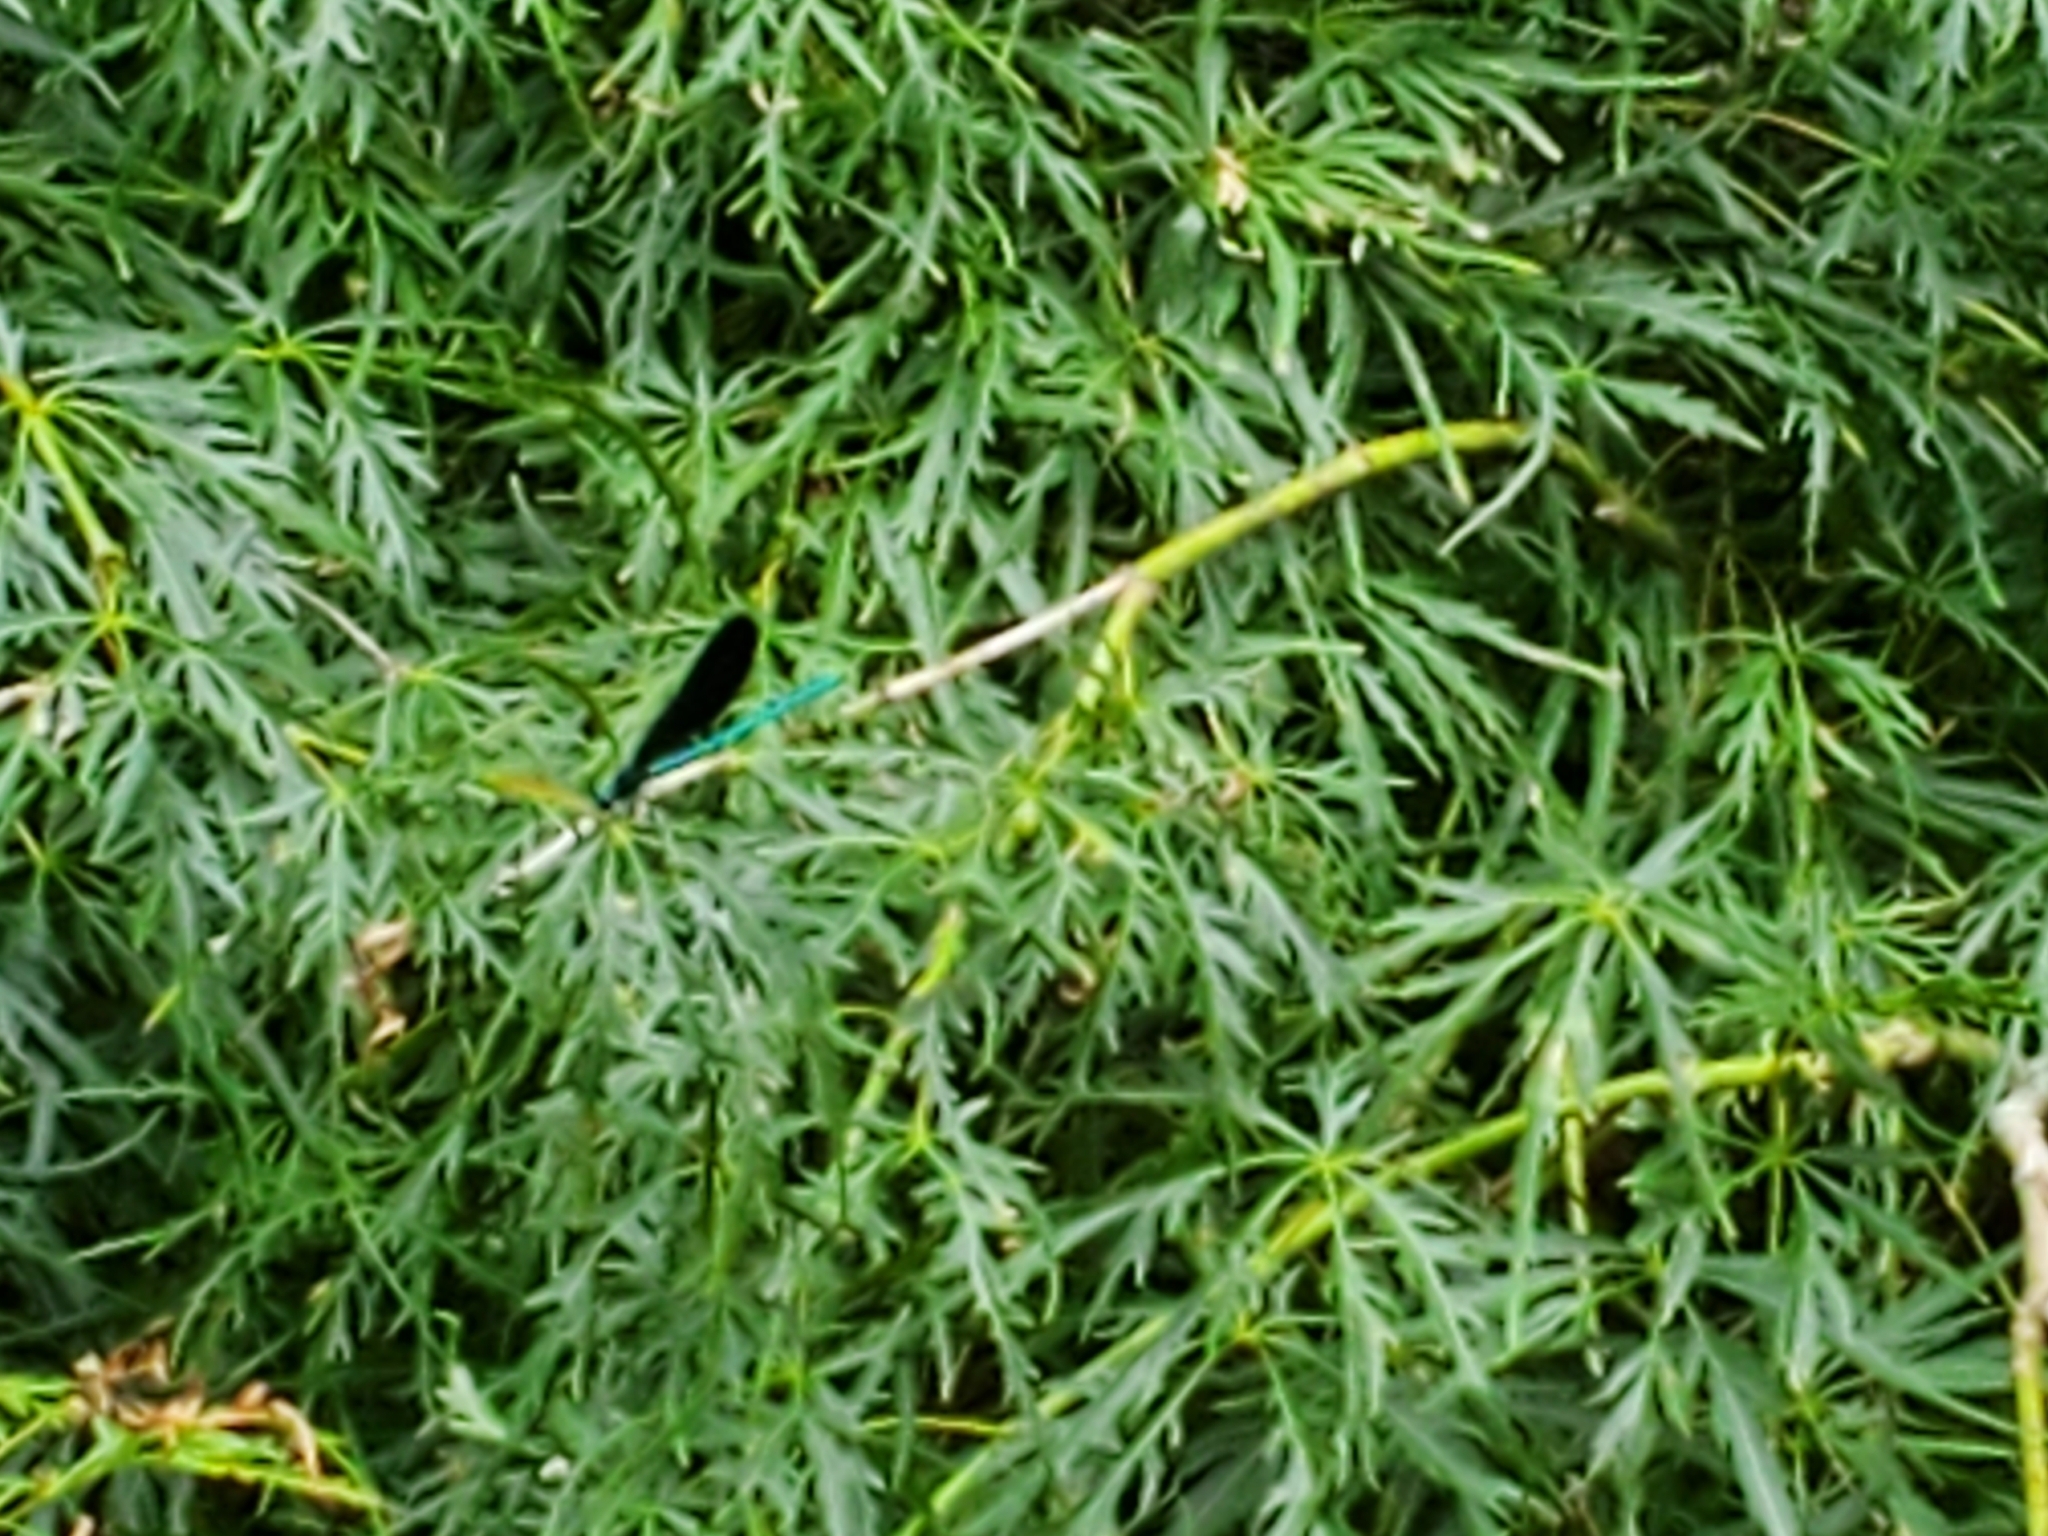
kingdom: Animalia
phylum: Arthropoda
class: Insecta
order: Odonata
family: Calopterygidae
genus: Calopteryx
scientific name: Calopteryx maculata
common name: Ebony jewelwing
